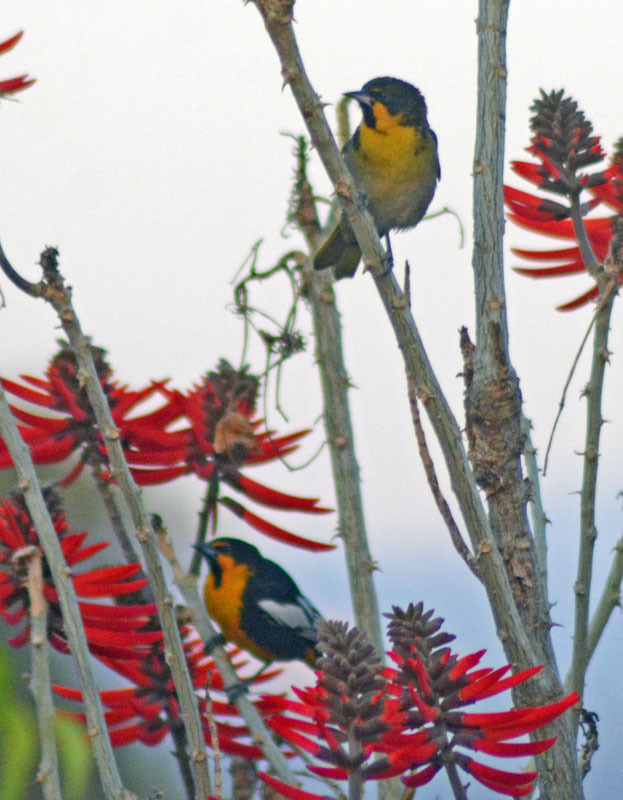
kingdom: Animalia
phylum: Chordata
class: Aves
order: Passeriformes
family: Icteridae
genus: Icterus
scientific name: Icterus abeillei
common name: Black-backed oriole
